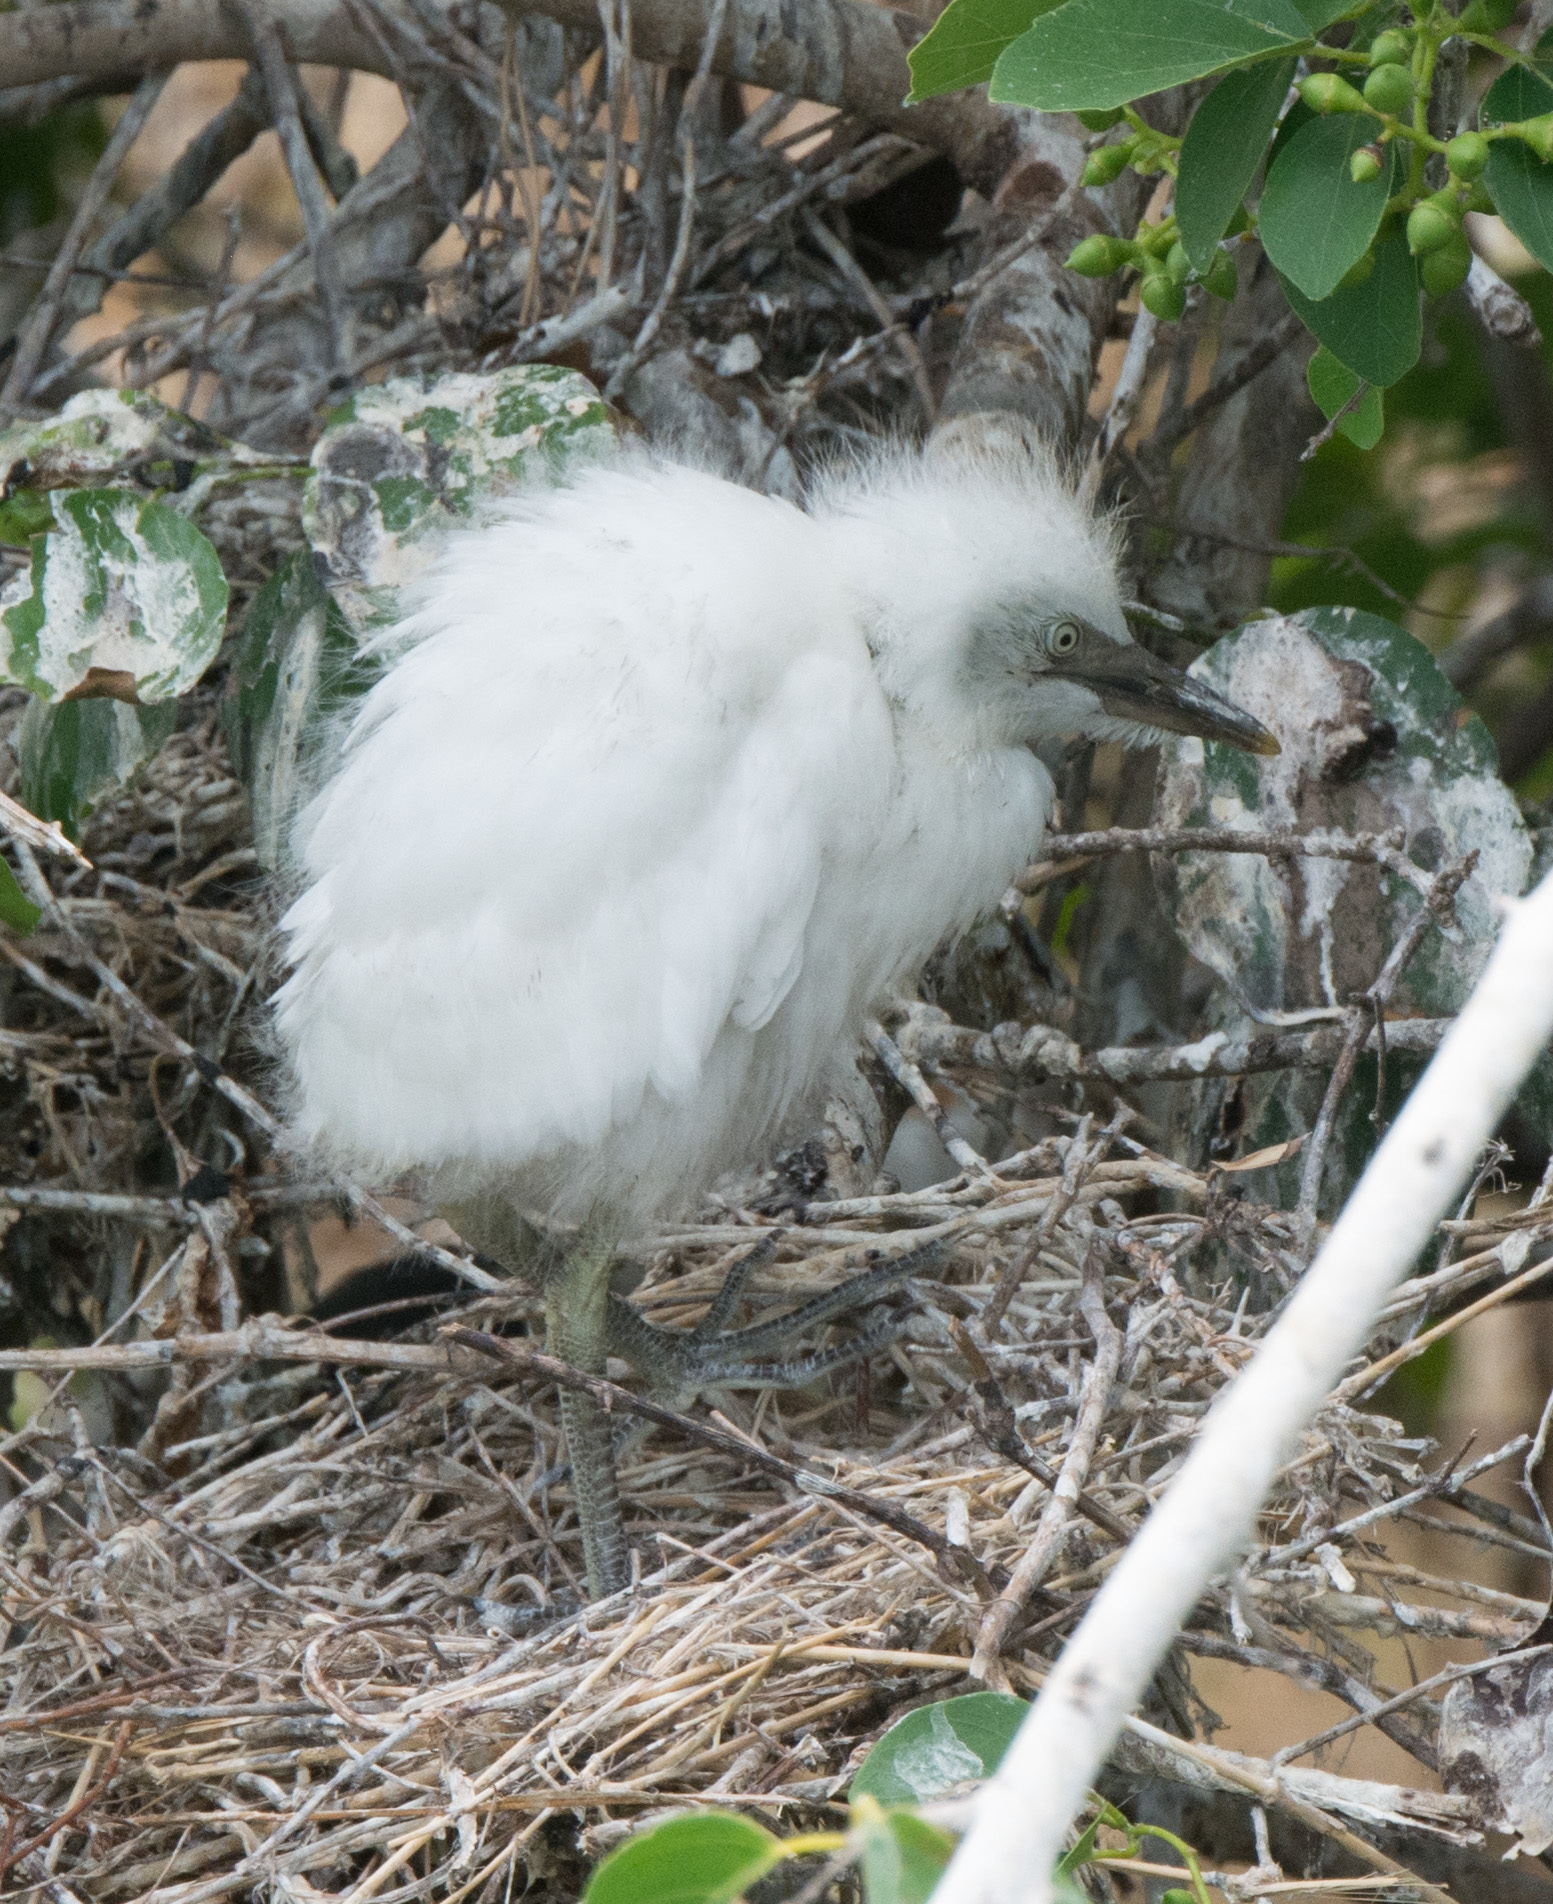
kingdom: Animalia
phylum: Chordata
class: Aves
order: Pelecaniformes
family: Ardeidae
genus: Egretta
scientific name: Egretta thula
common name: Snowy egret
